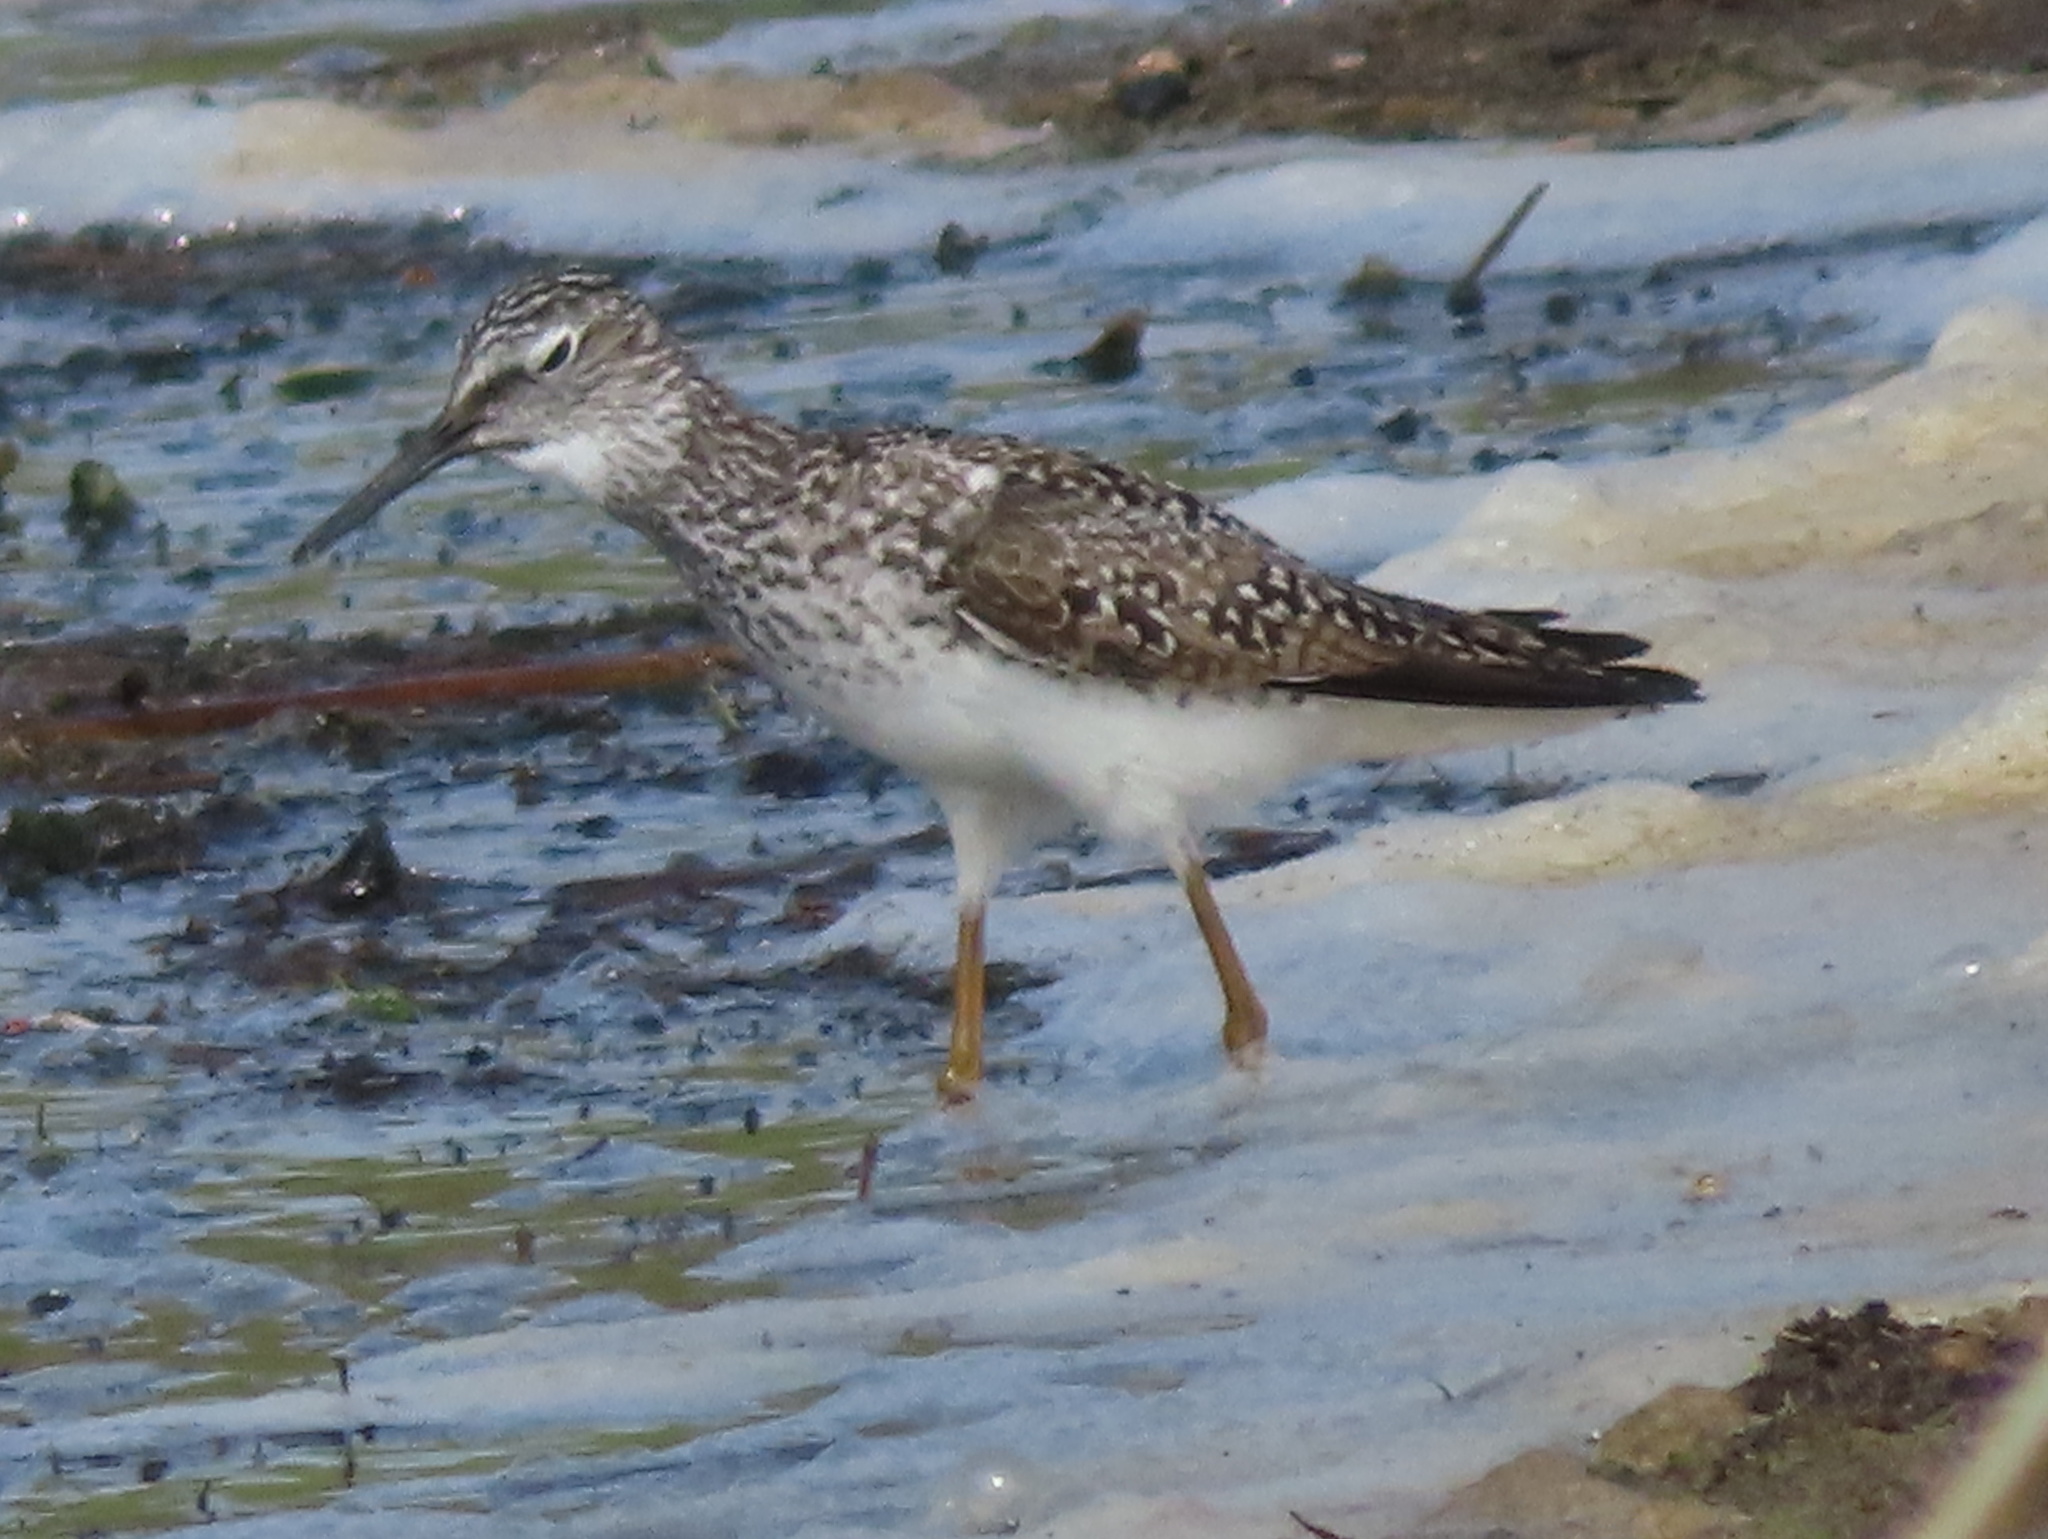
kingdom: Animalia
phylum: Chordata
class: Aves
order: Charadriiformes
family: Scolopacidae
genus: Tringa
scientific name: Tringa solitaria
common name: Solitary sandpiper
